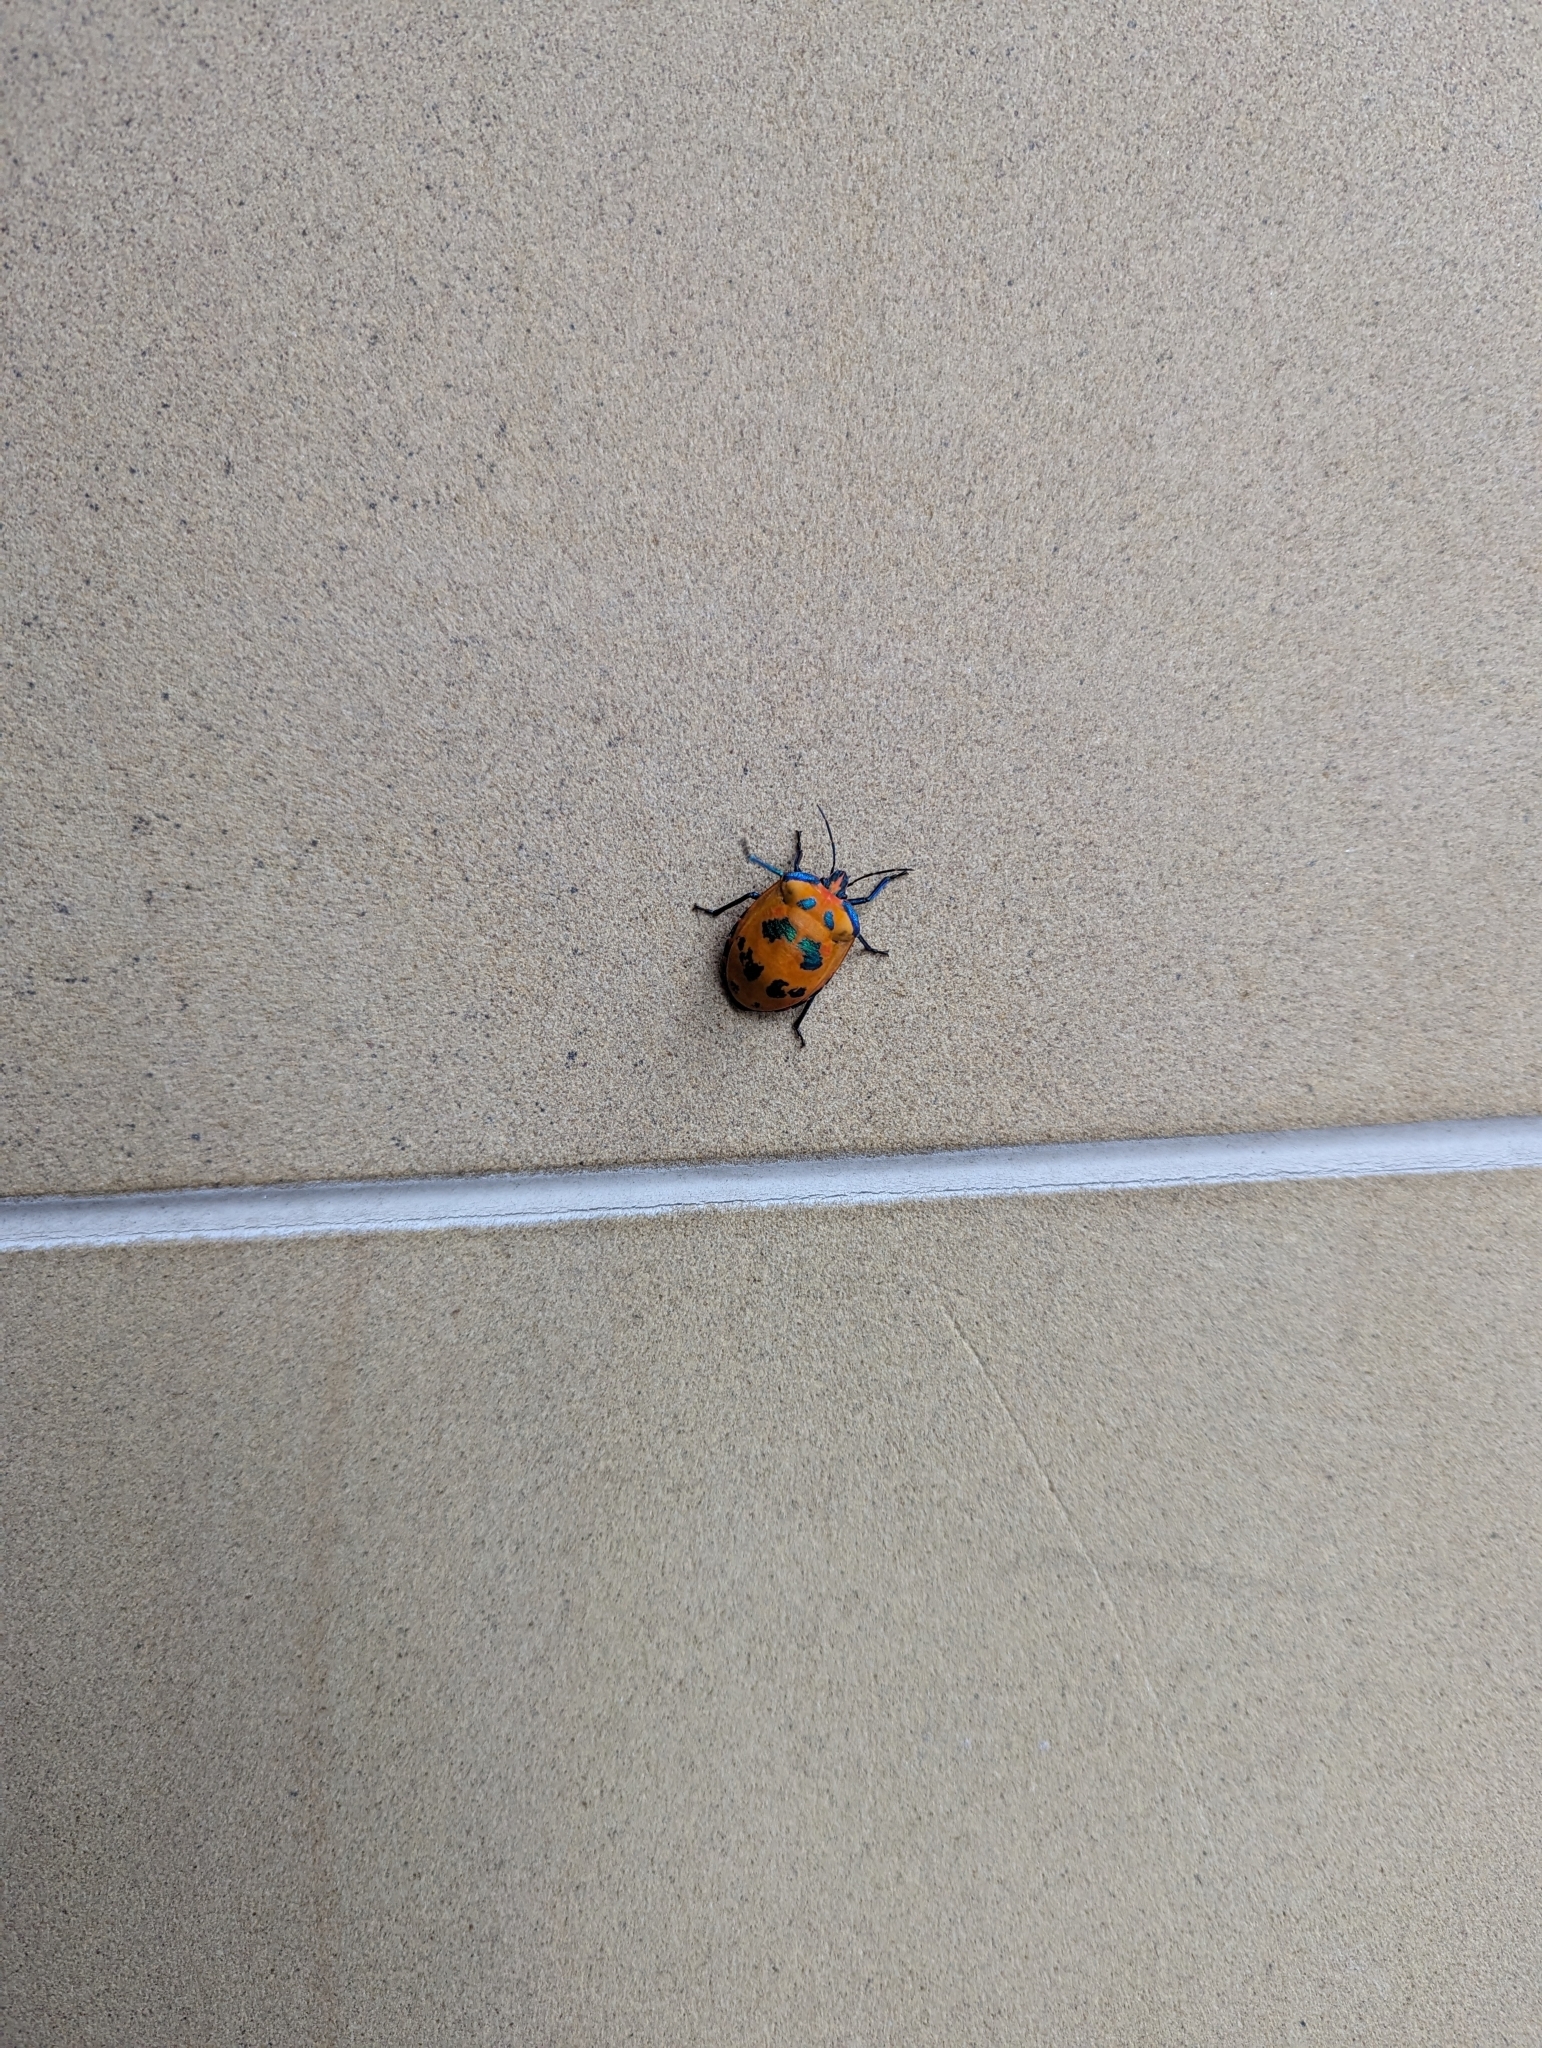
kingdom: Animalia
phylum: Arthropoda
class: Insecta
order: Hemiptera
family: Scutelleridae
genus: Tectocoris
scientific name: Tectocoris diophthalmus
